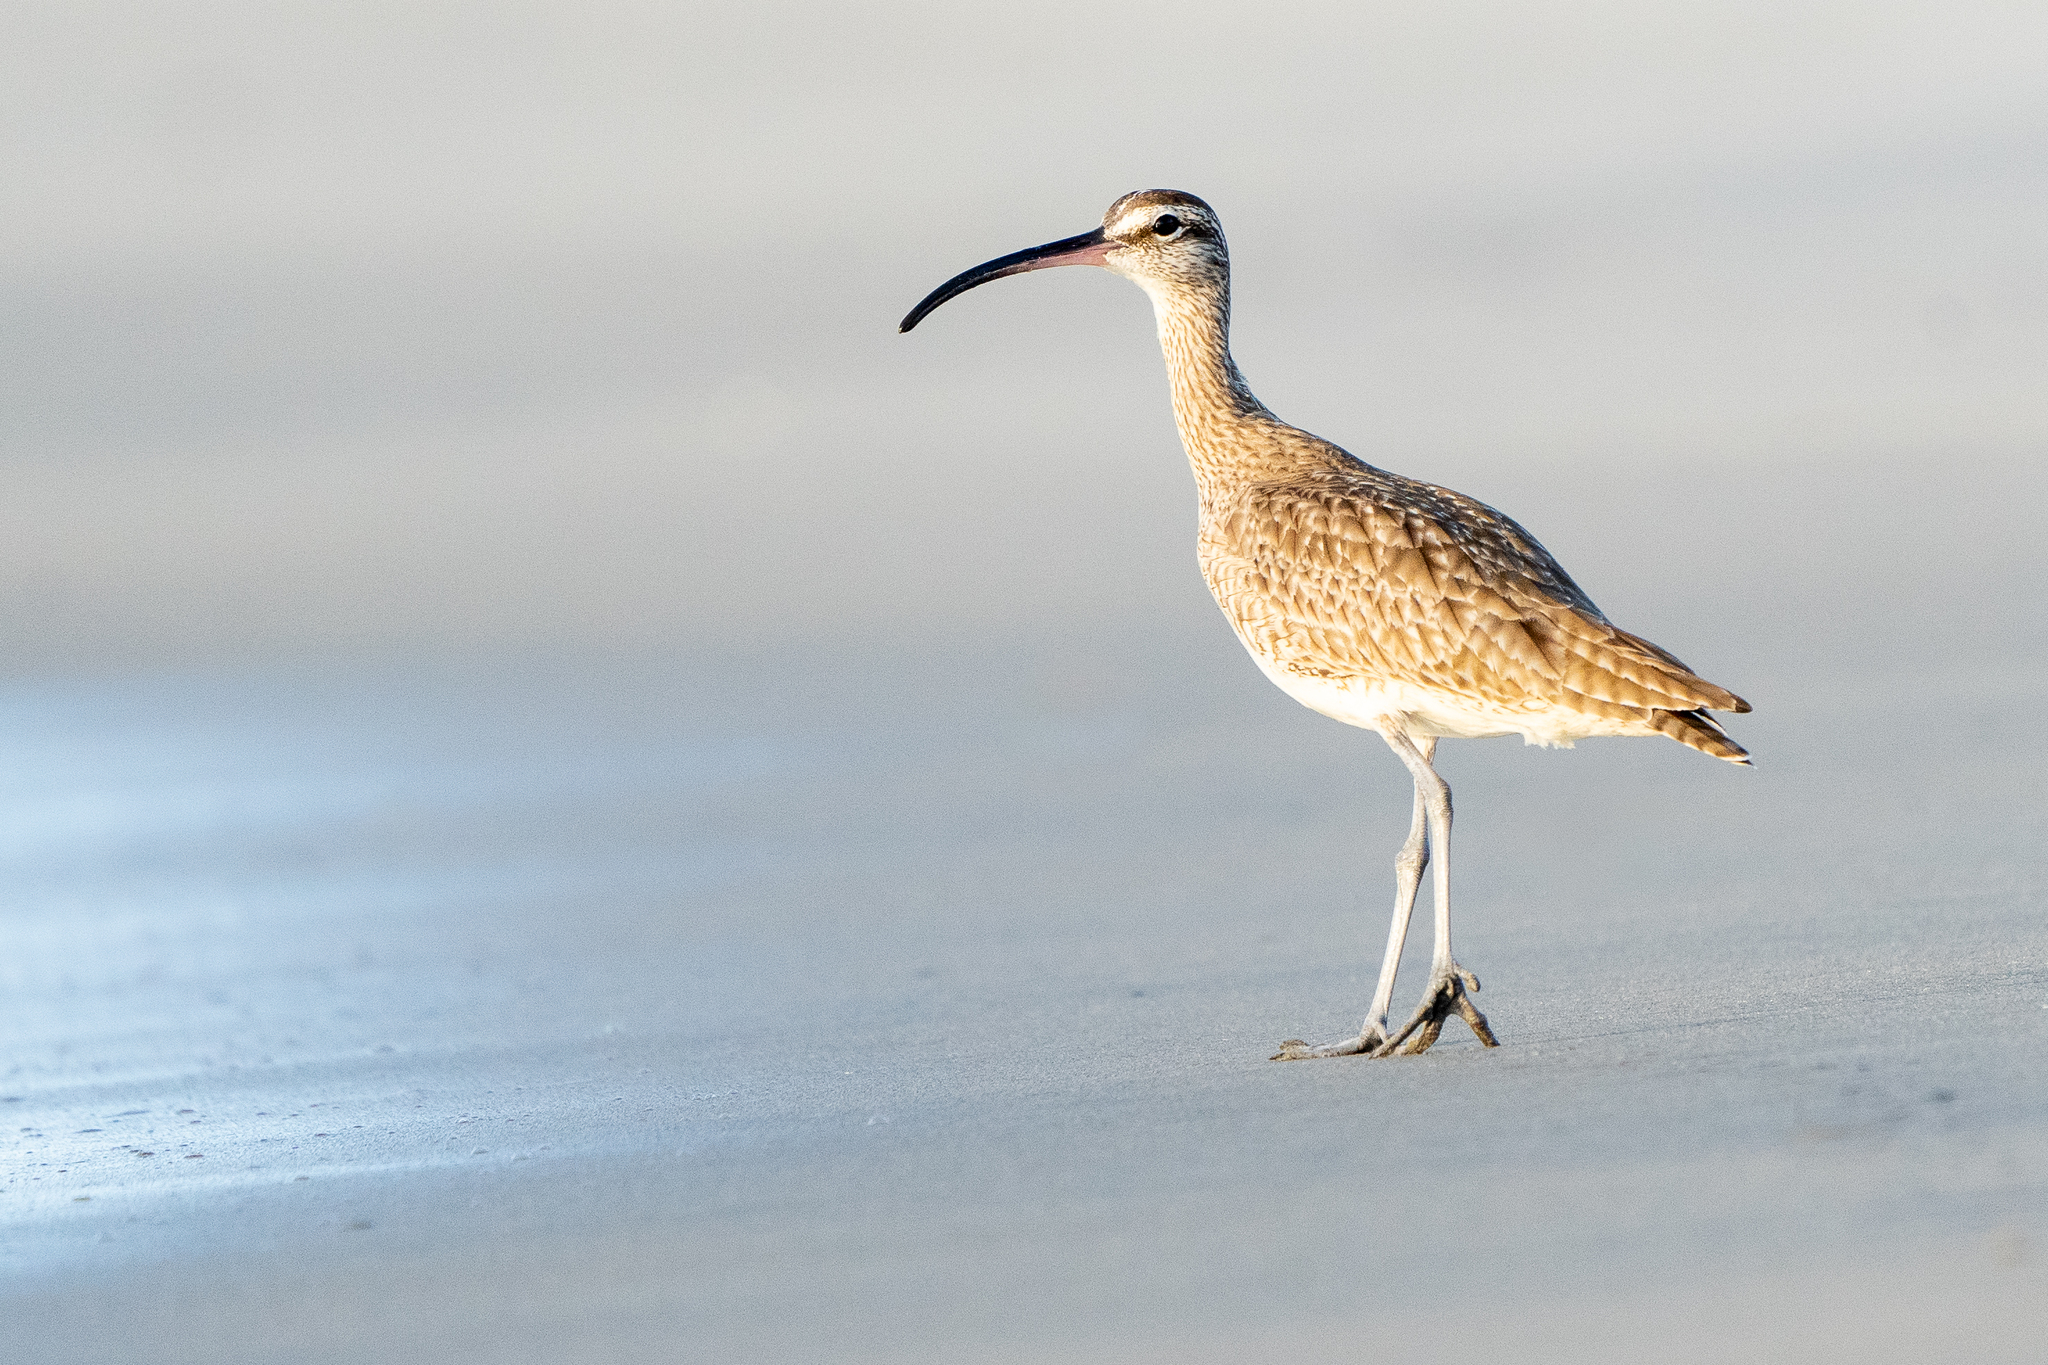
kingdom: Animalia
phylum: Chordata
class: Aves
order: Charadriiformes
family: Scolopacidae
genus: Numenius
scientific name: Numenius phaeopus
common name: Whimbrel
